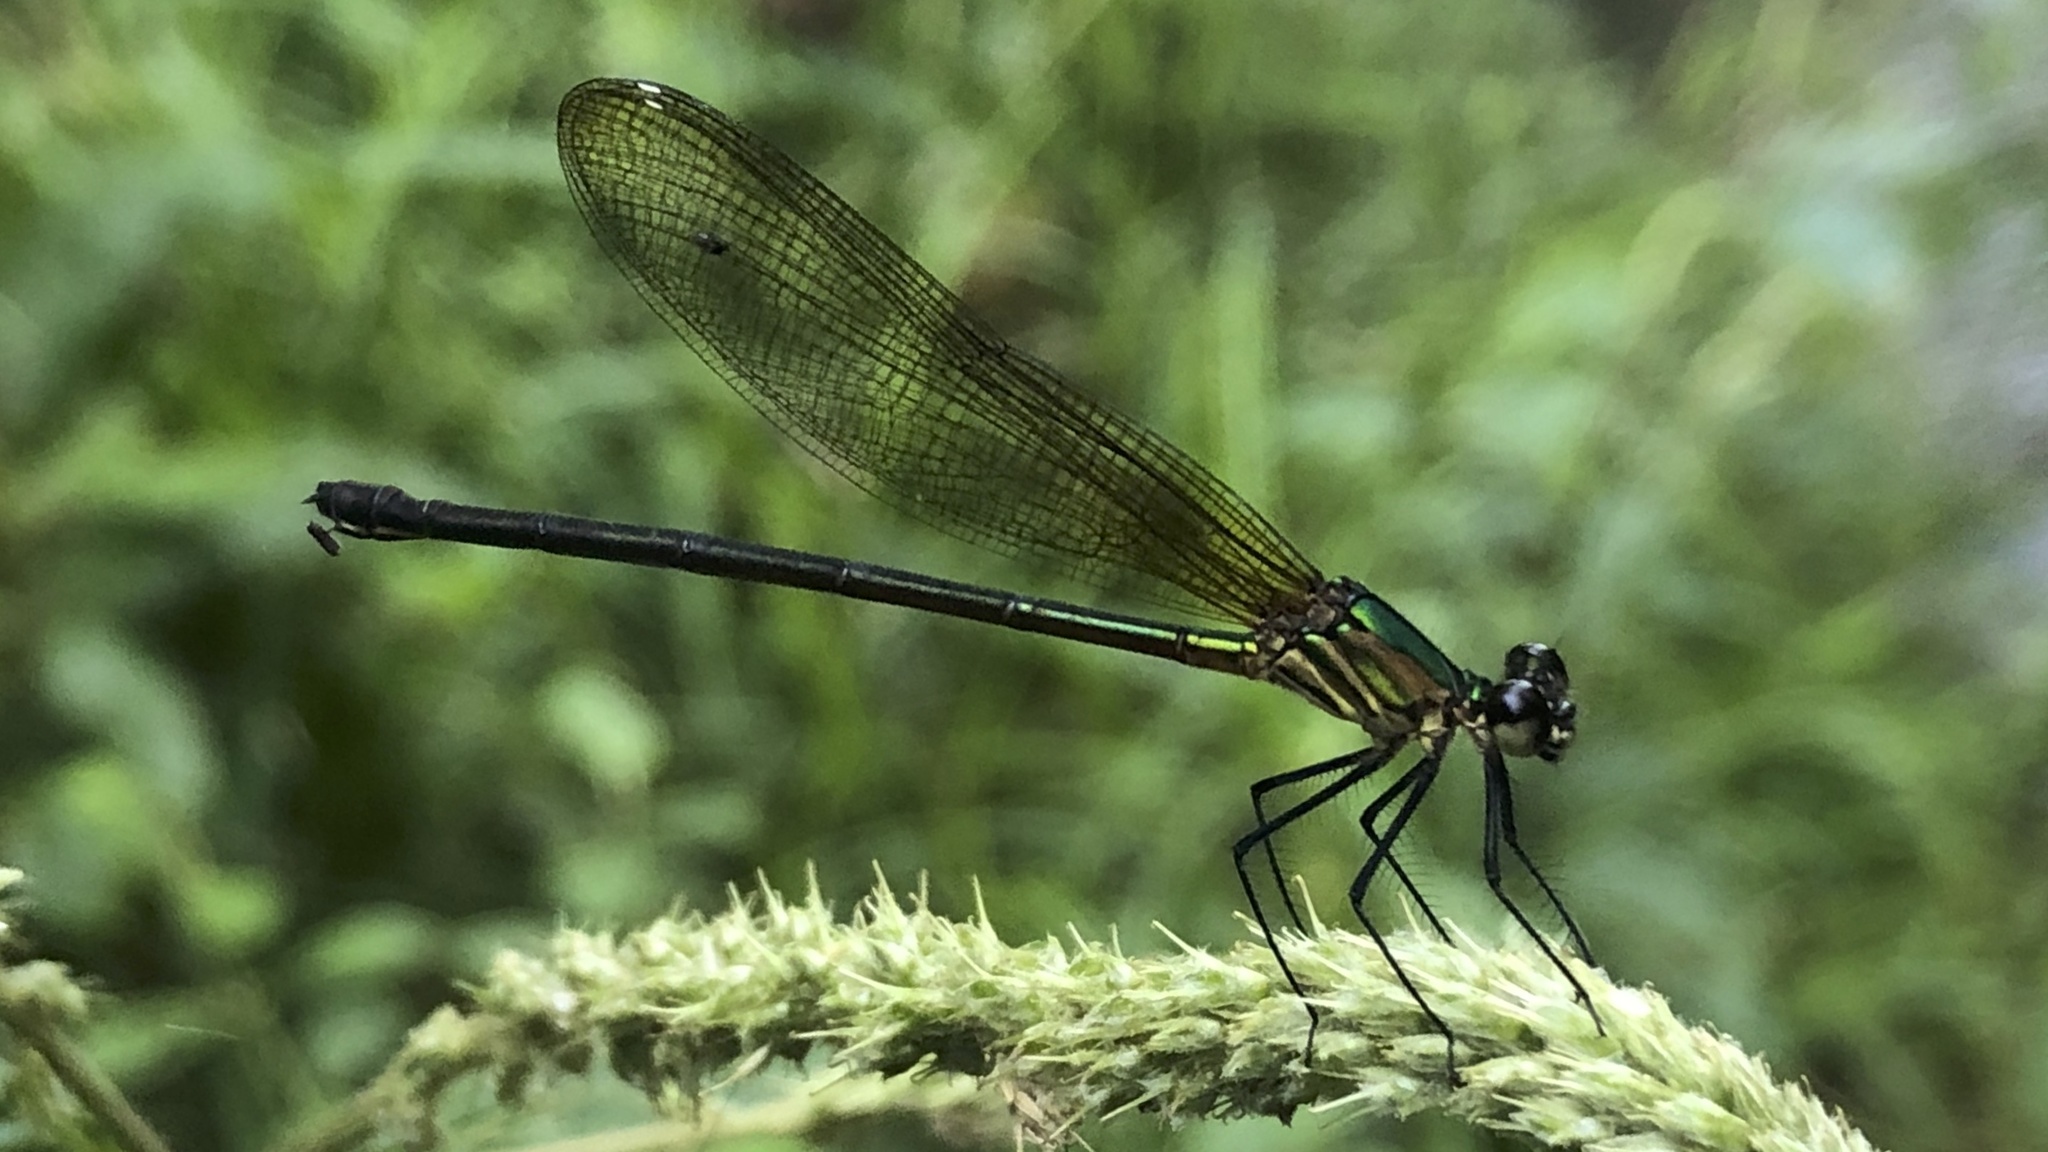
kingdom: Animalia
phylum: Arthropoda
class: Insecta
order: Odonata
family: Calopterygidae
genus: Hetaerina
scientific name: Hetaerina occisa
